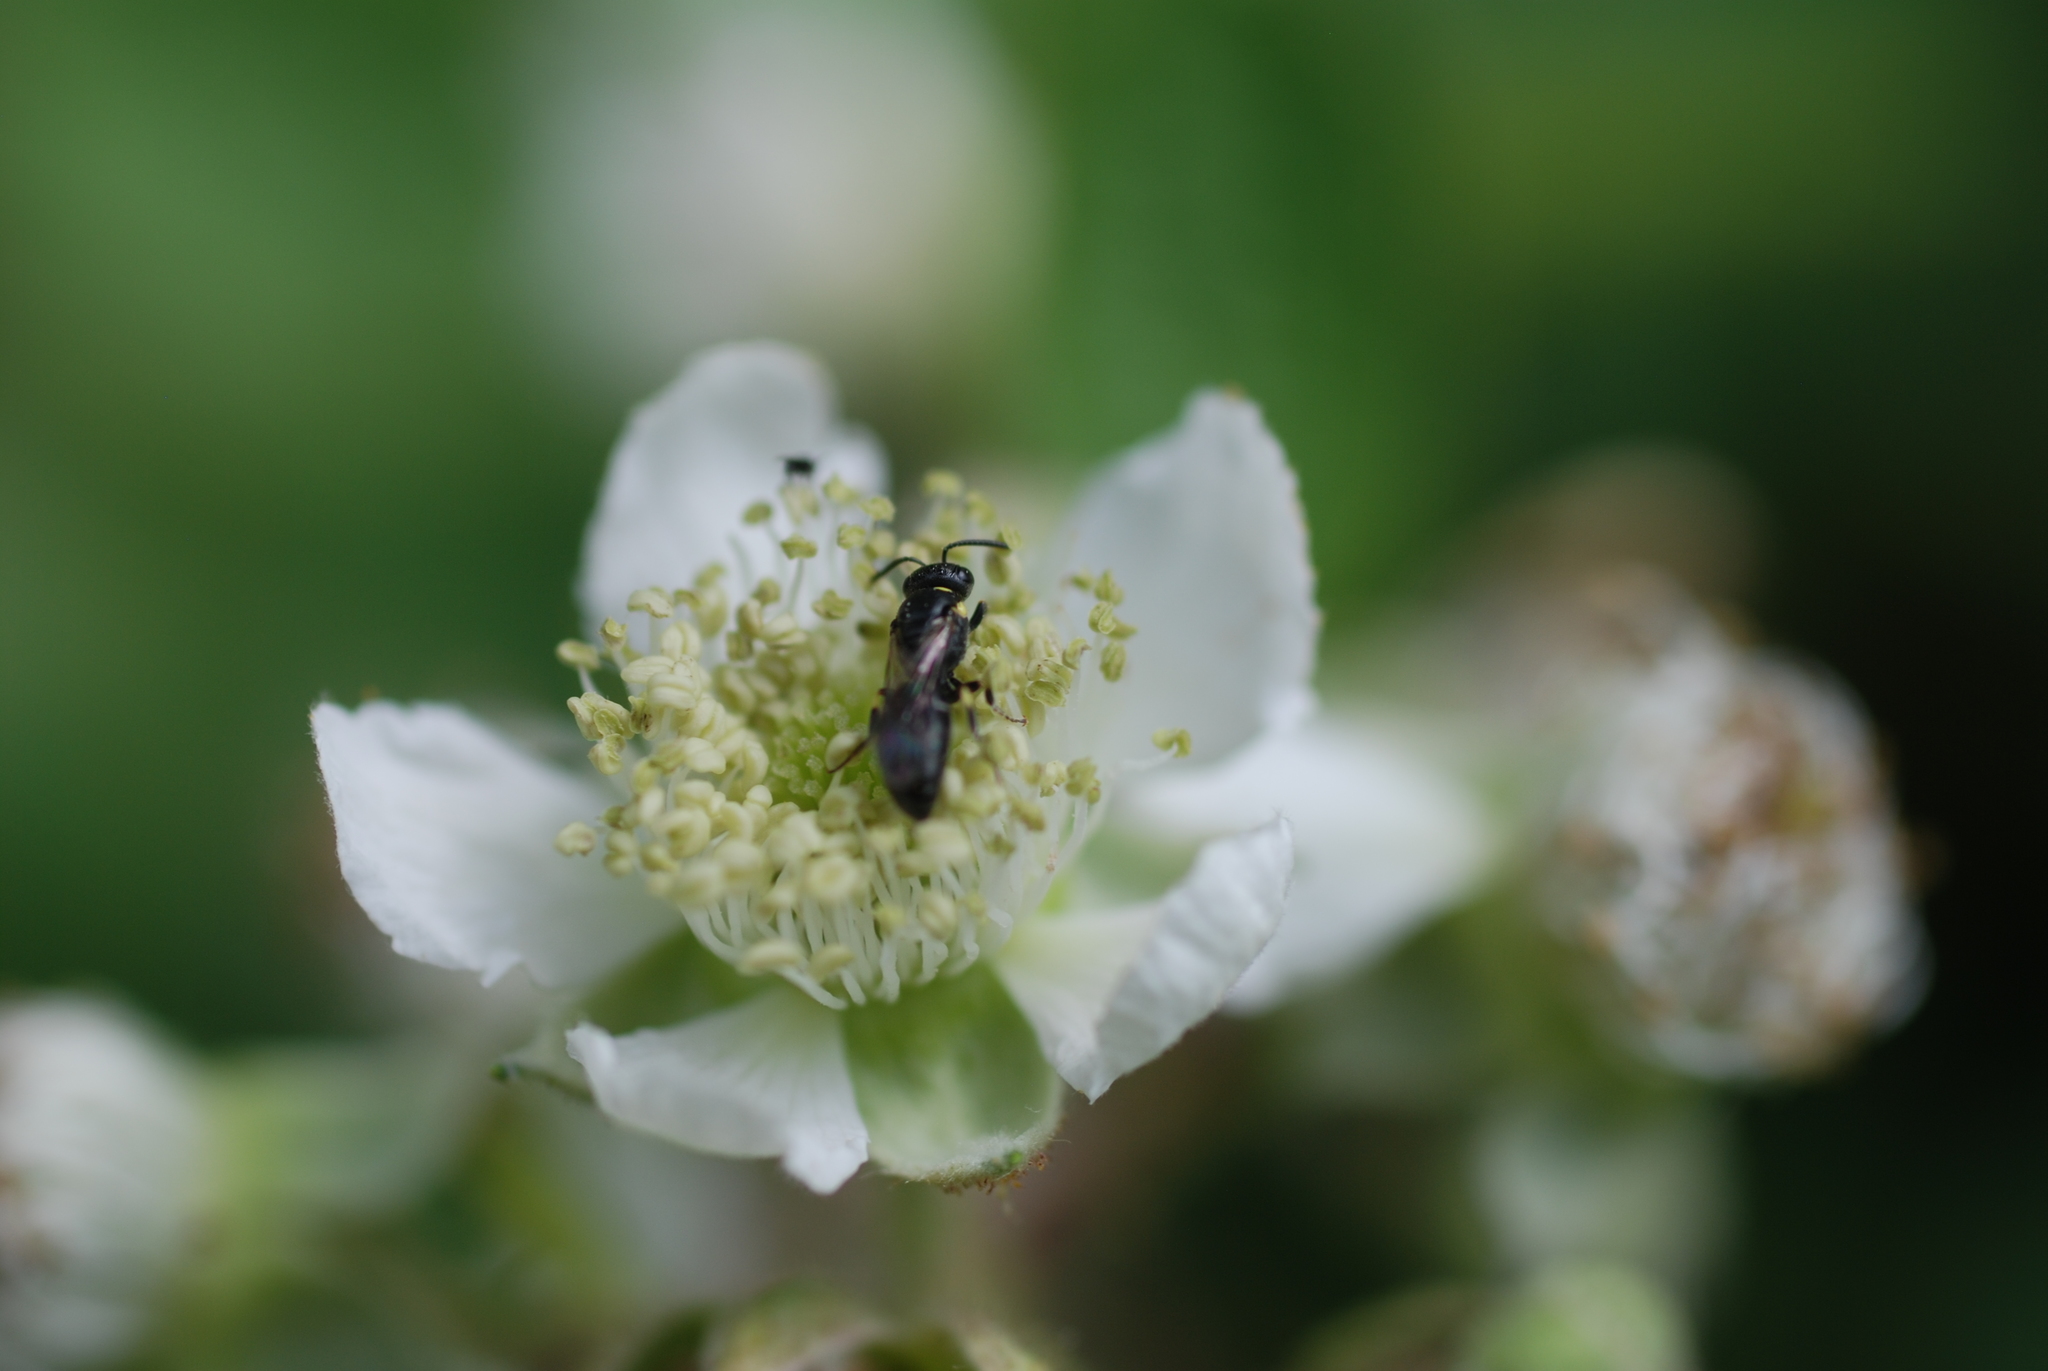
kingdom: Animalia
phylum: Arthropoda
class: Insecta
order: Hymenoptera
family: Colletidae
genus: Hylaeus
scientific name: Hylaeus
